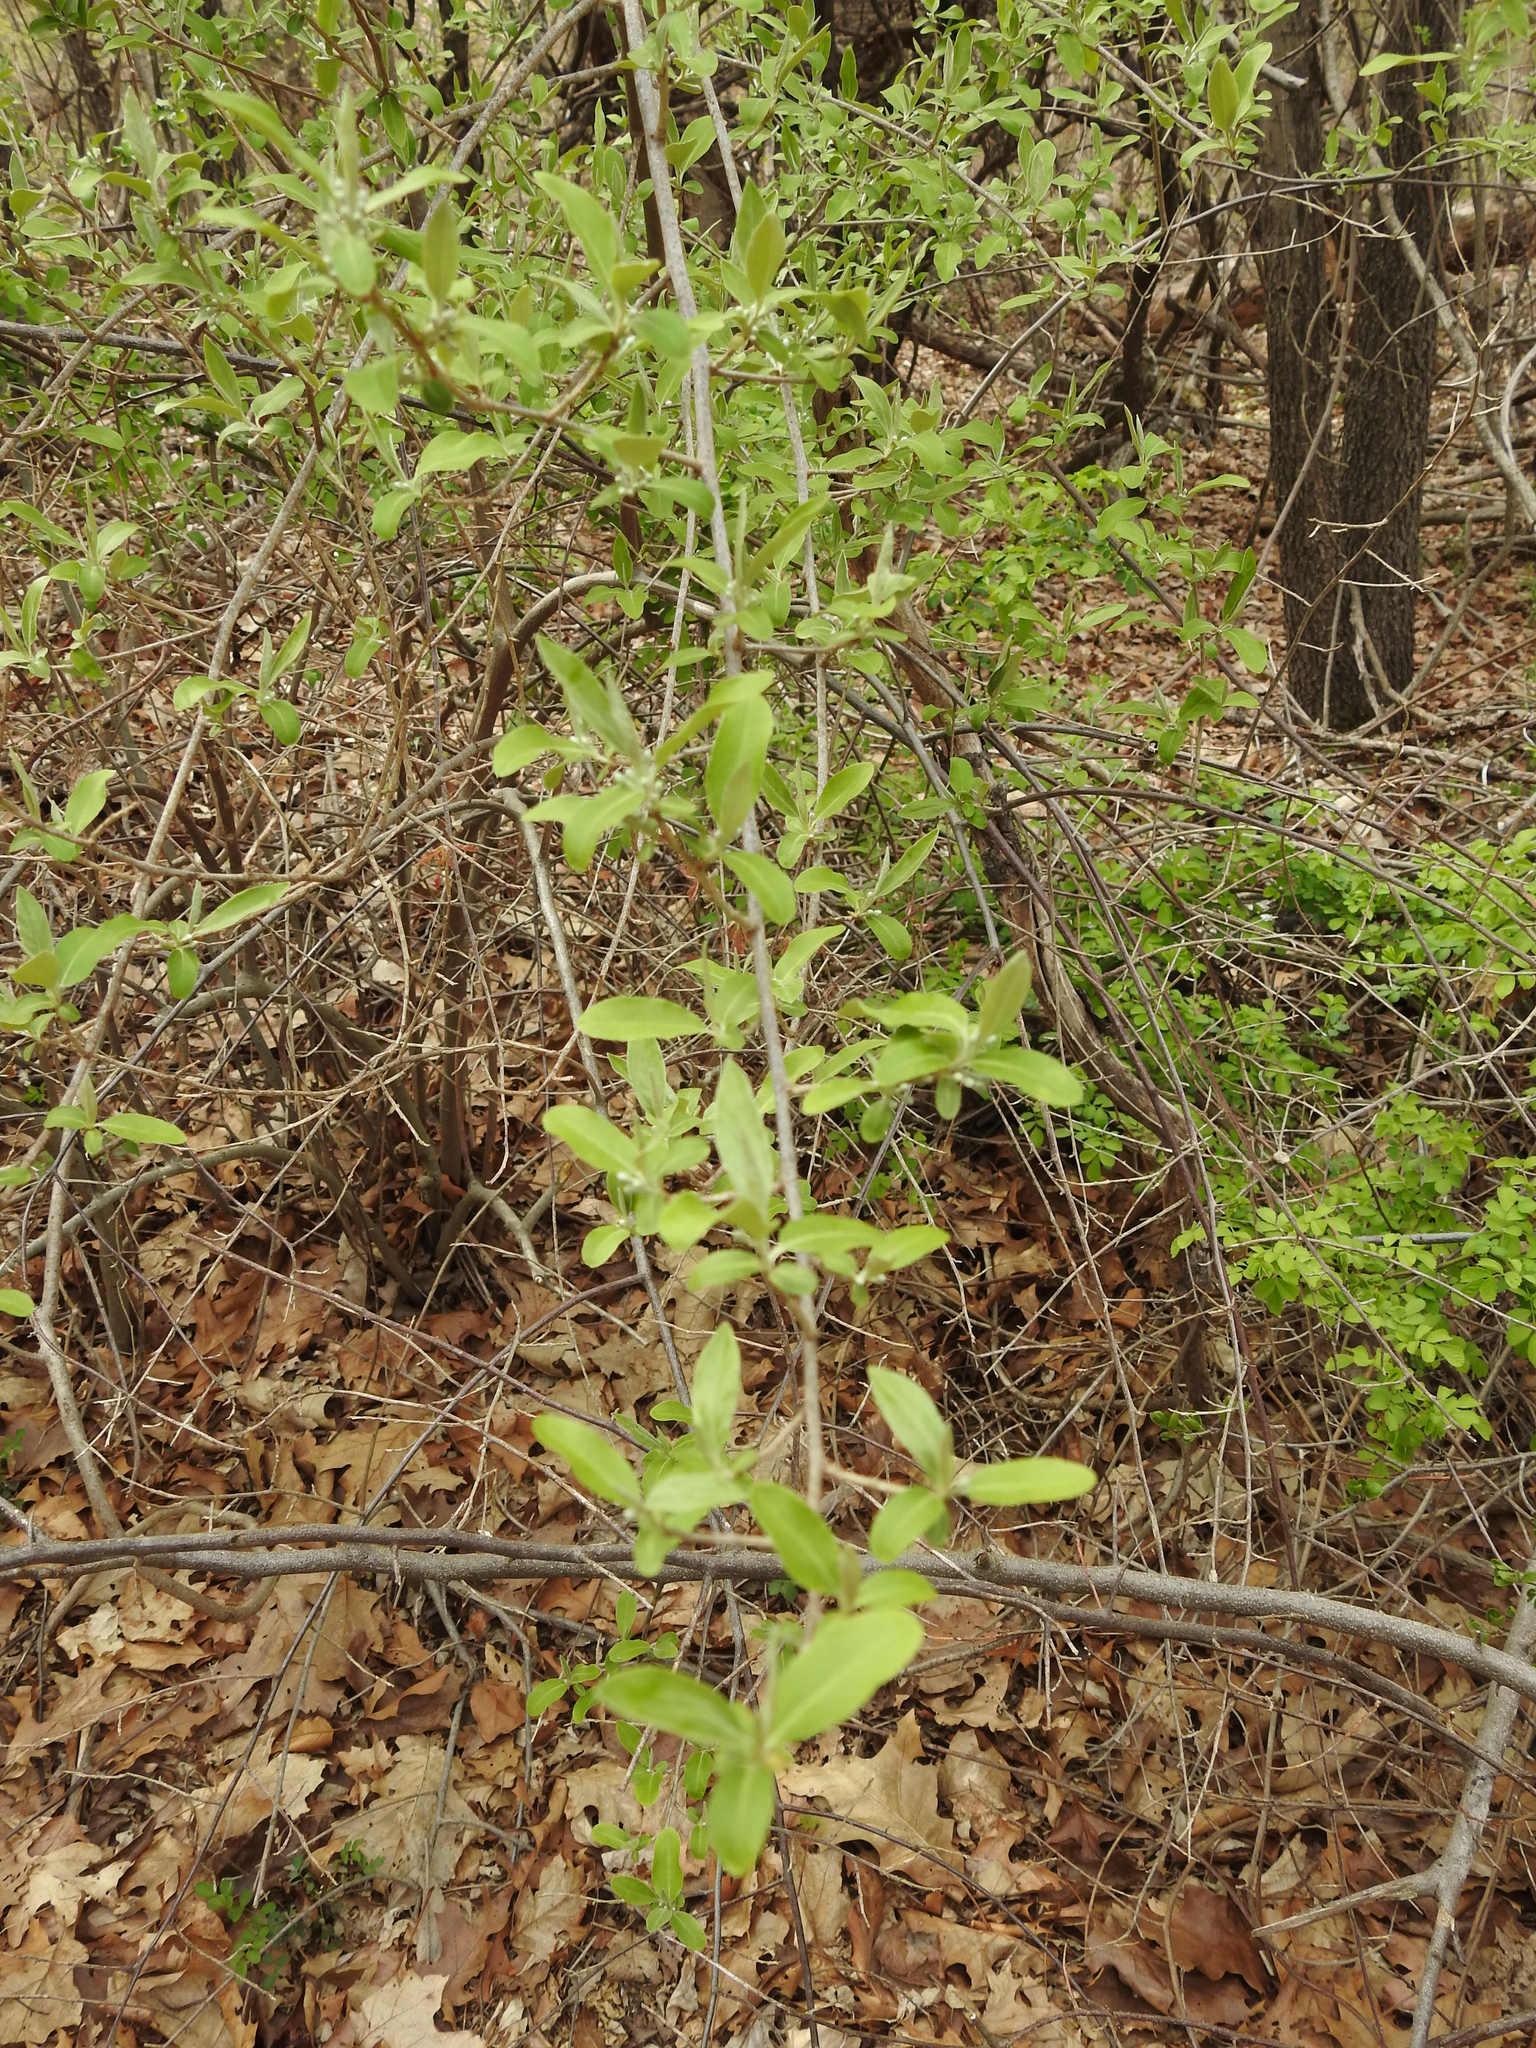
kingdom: Plantae
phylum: Tracheophyta
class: Magnoliopsida
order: Rosales
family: Elaeagnaceae
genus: Elaeagnus
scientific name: Elaeagnus umbellata
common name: Autumn olive
